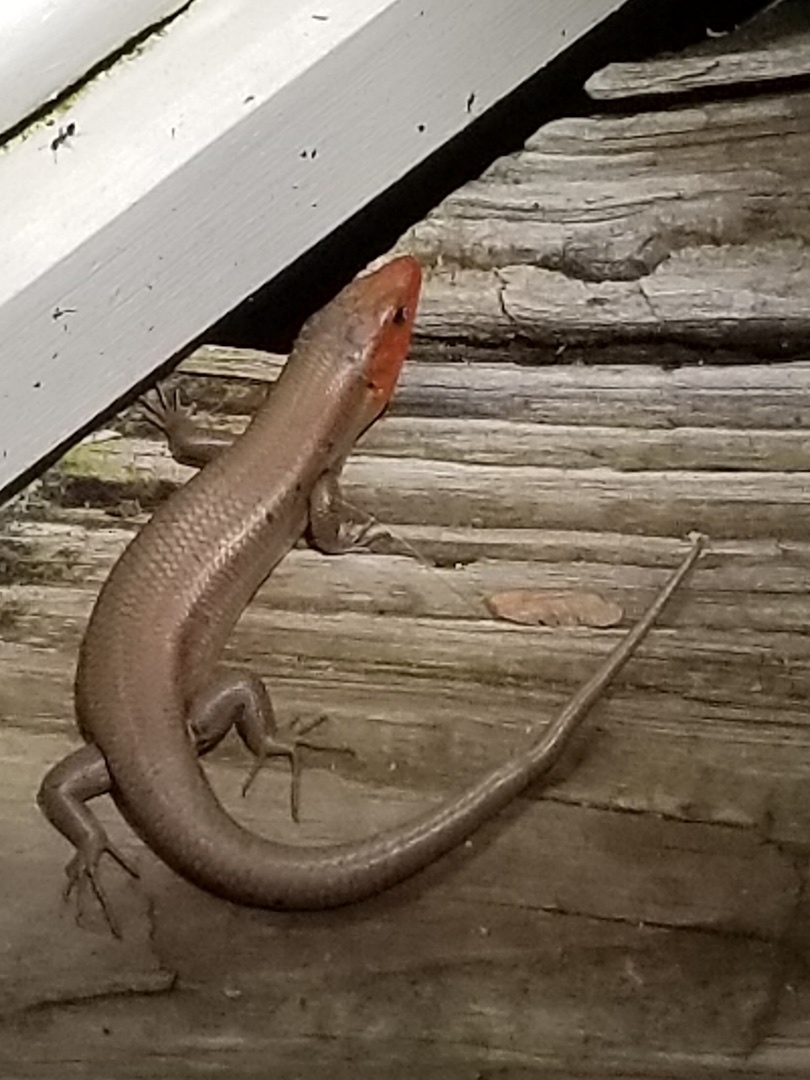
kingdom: Animalia
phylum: Chordata
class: Squamata
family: Scincidae
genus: Plestiodon
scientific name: Plestiodon fasciatus
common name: Five-lined skink
